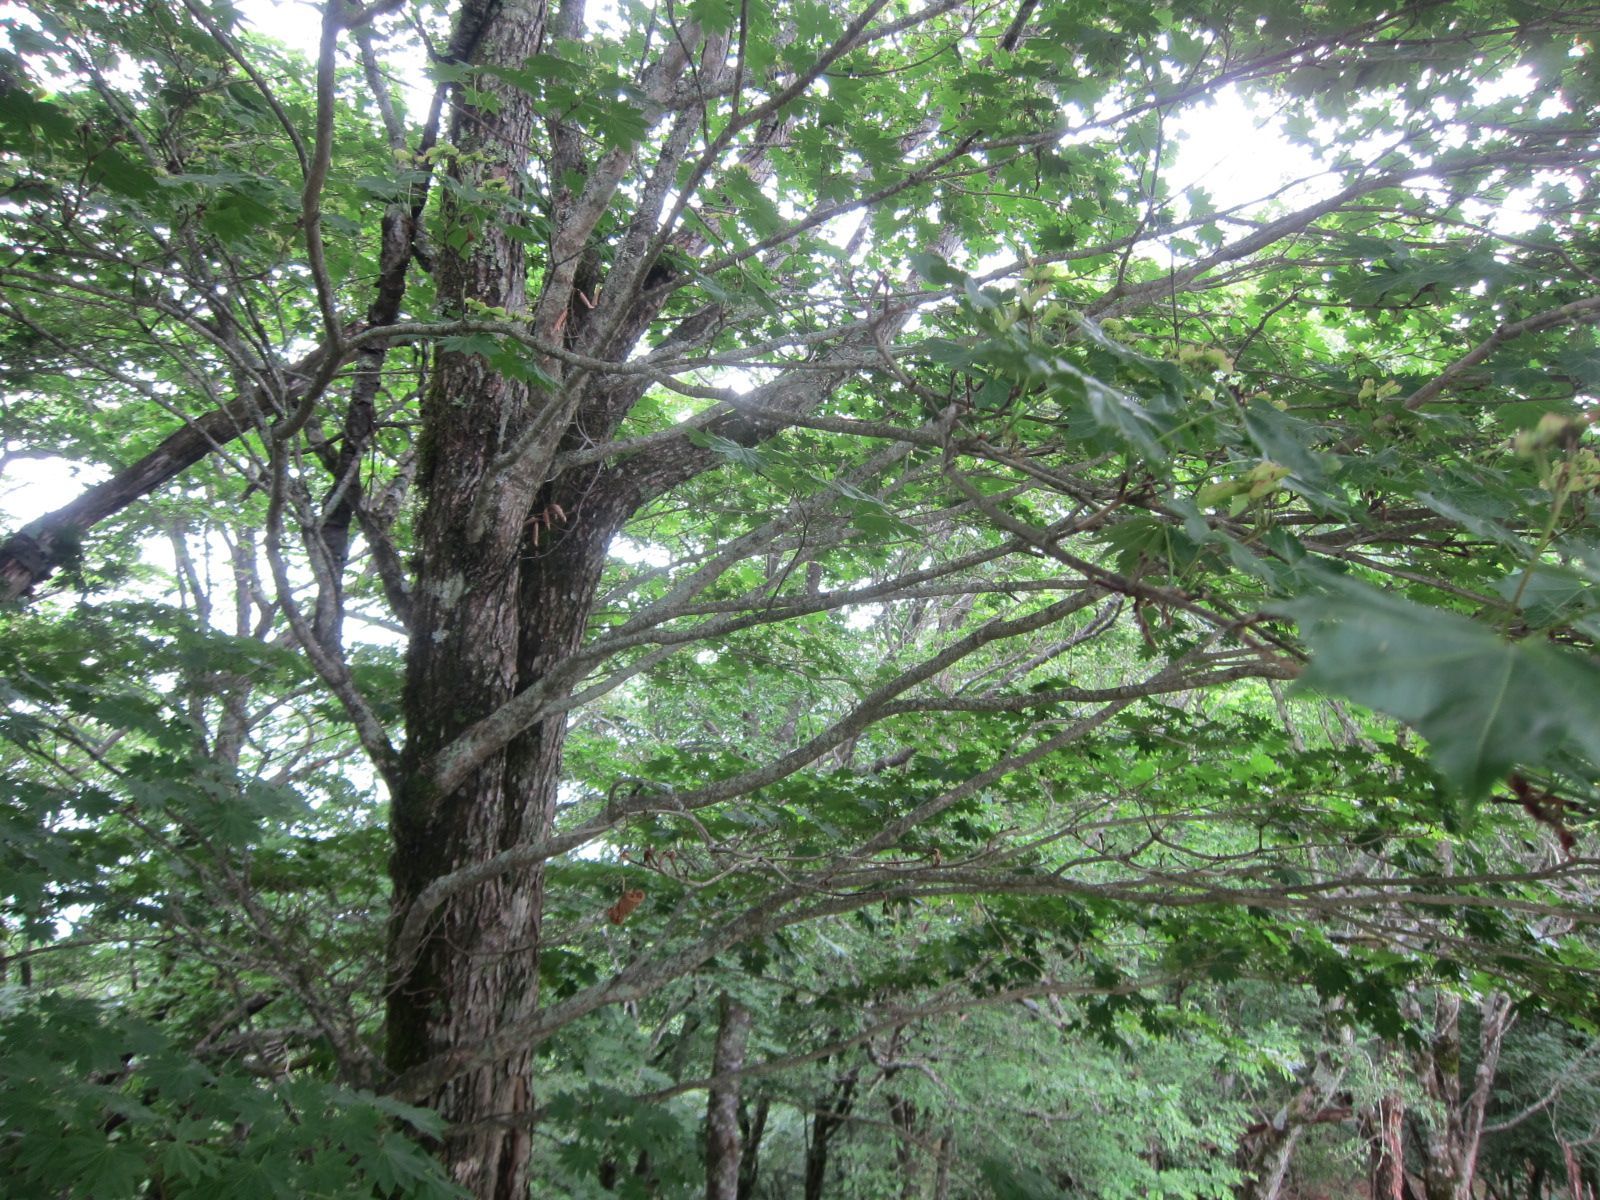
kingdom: Plantae
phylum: Tracheophyta
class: Magnoliopsida
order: Sapindales
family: Sapindaceae
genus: Acer
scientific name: Acer japonicum
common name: Amur maple
